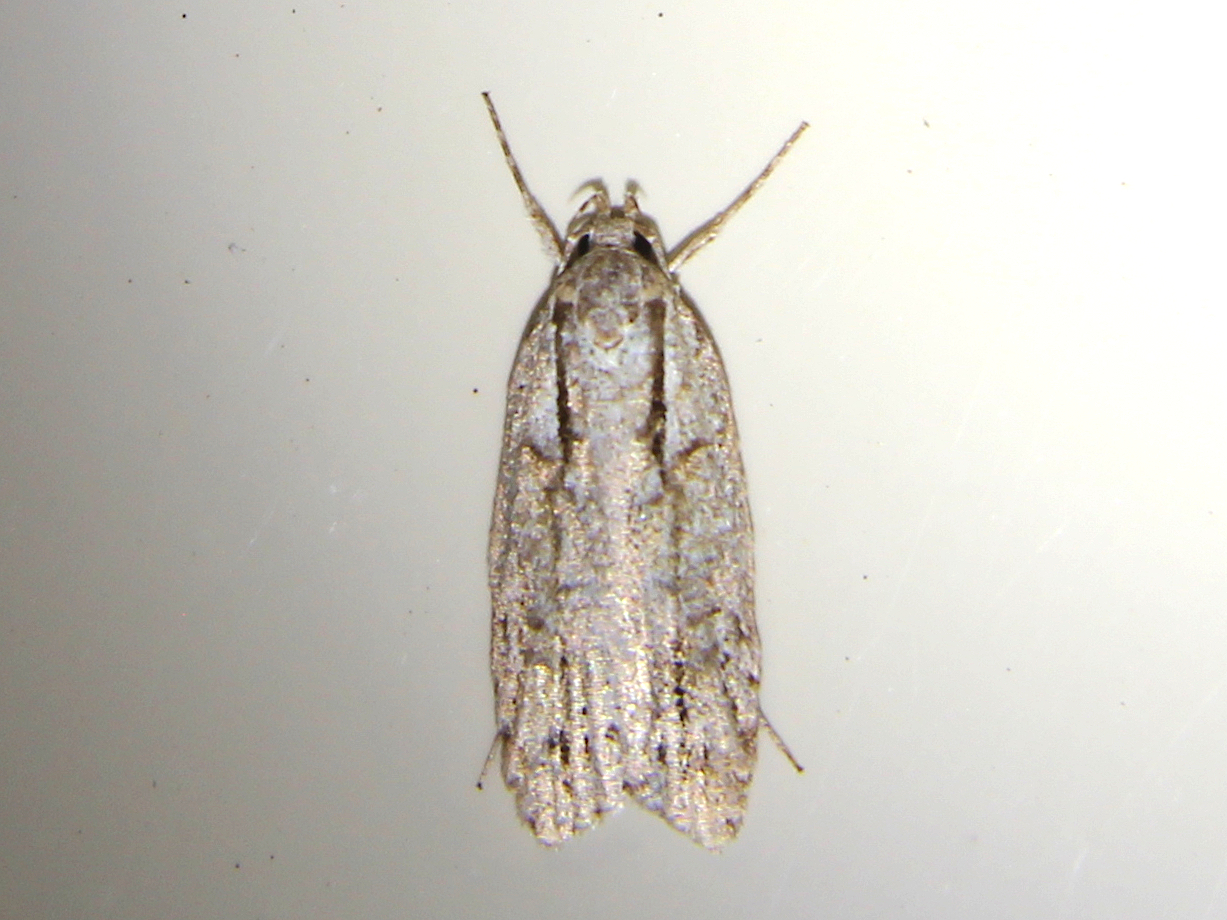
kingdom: Animalia
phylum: Arthropoda
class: Insecta
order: Lepidoptera
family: Oecophoridae
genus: Izatha
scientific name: Izatha attactella
